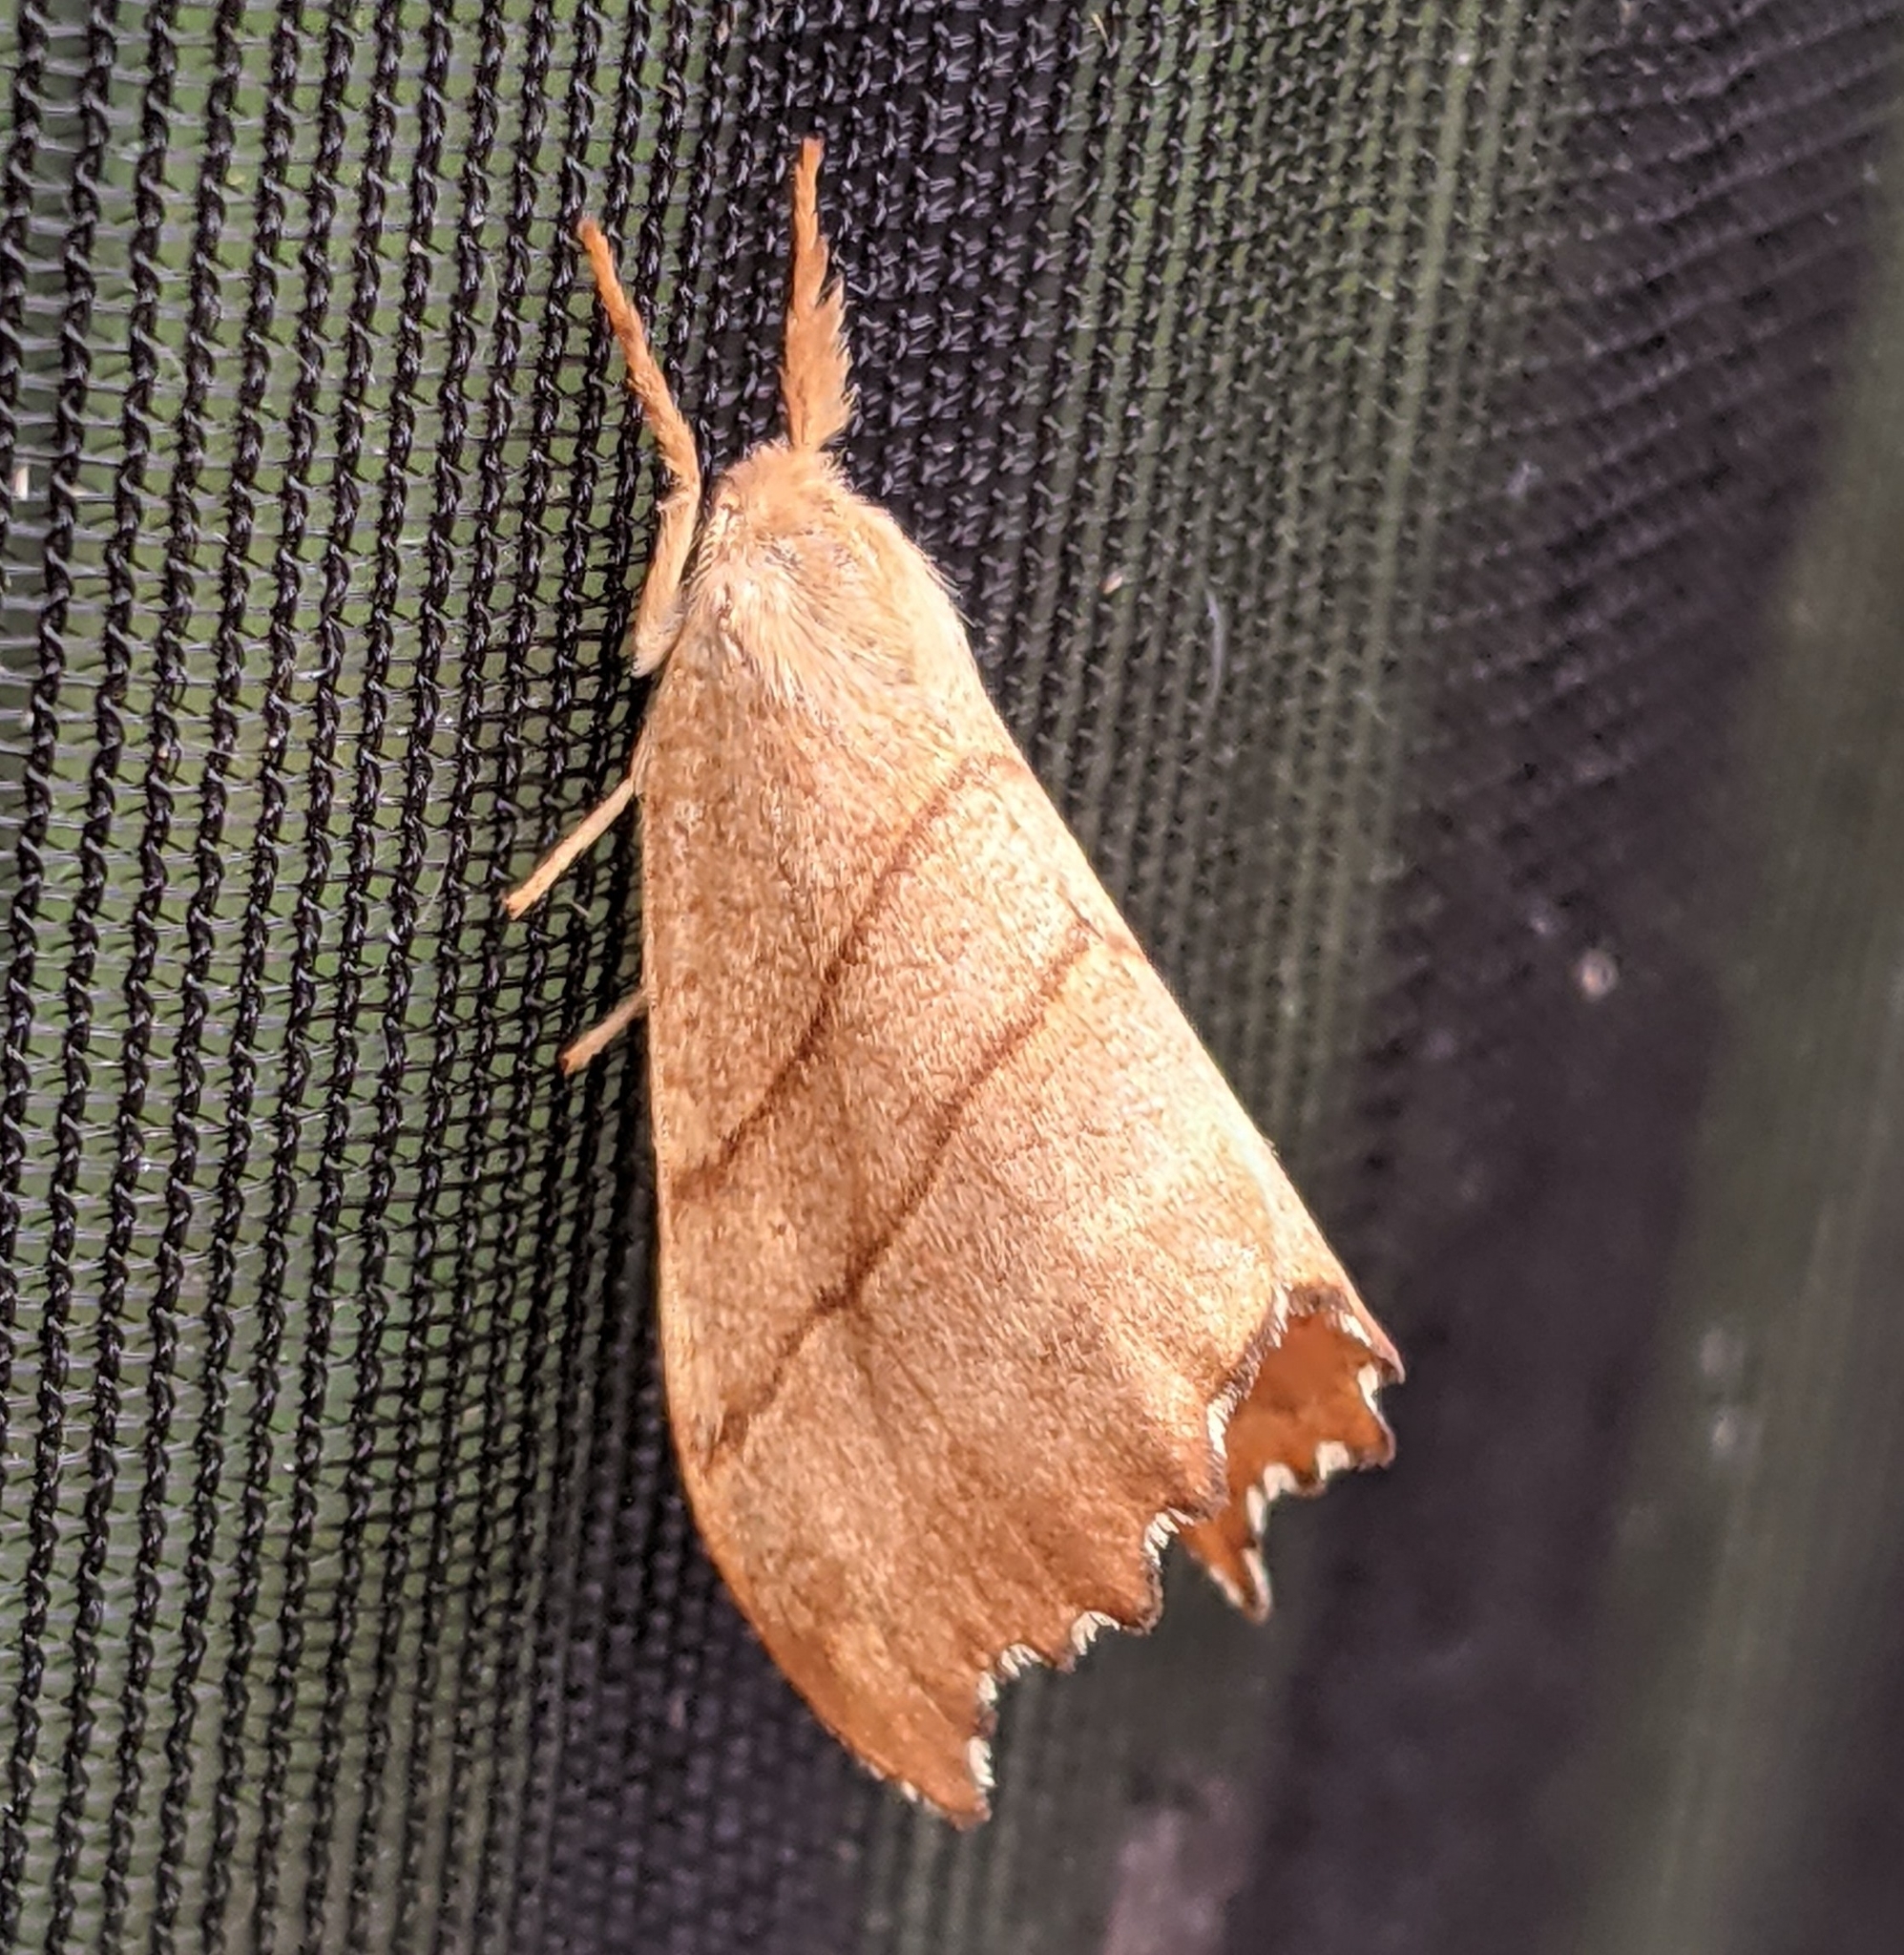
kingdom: Animalia
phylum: Arthropoda
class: Insecta
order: Lepidoptera
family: Drepanidae
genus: Falcaria
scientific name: Falcaria bilineata
